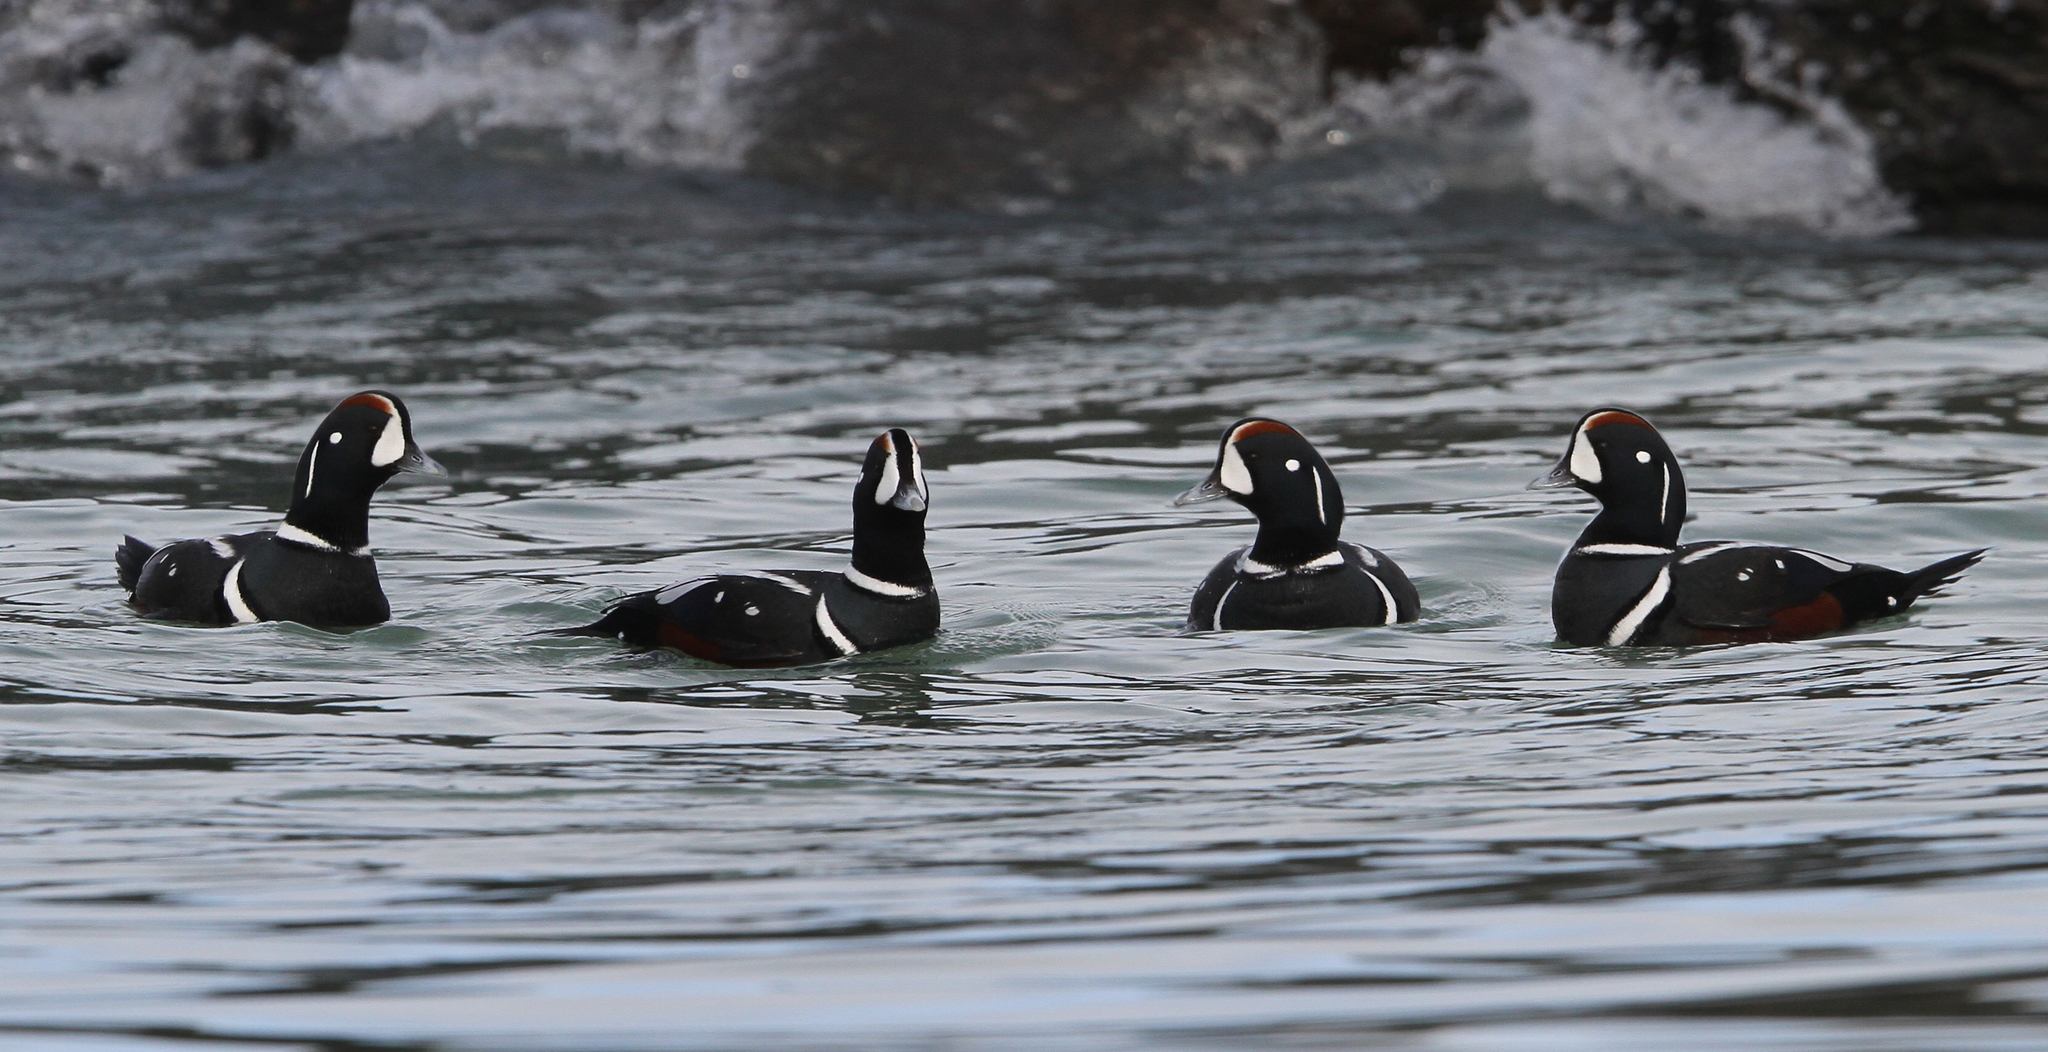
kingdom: Animalia
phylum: Chordata
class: Aves
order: Anseriformes
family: Anatidae
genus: Histrionicus
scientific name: Histrionicus histrionicus
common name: Harlequin duck
